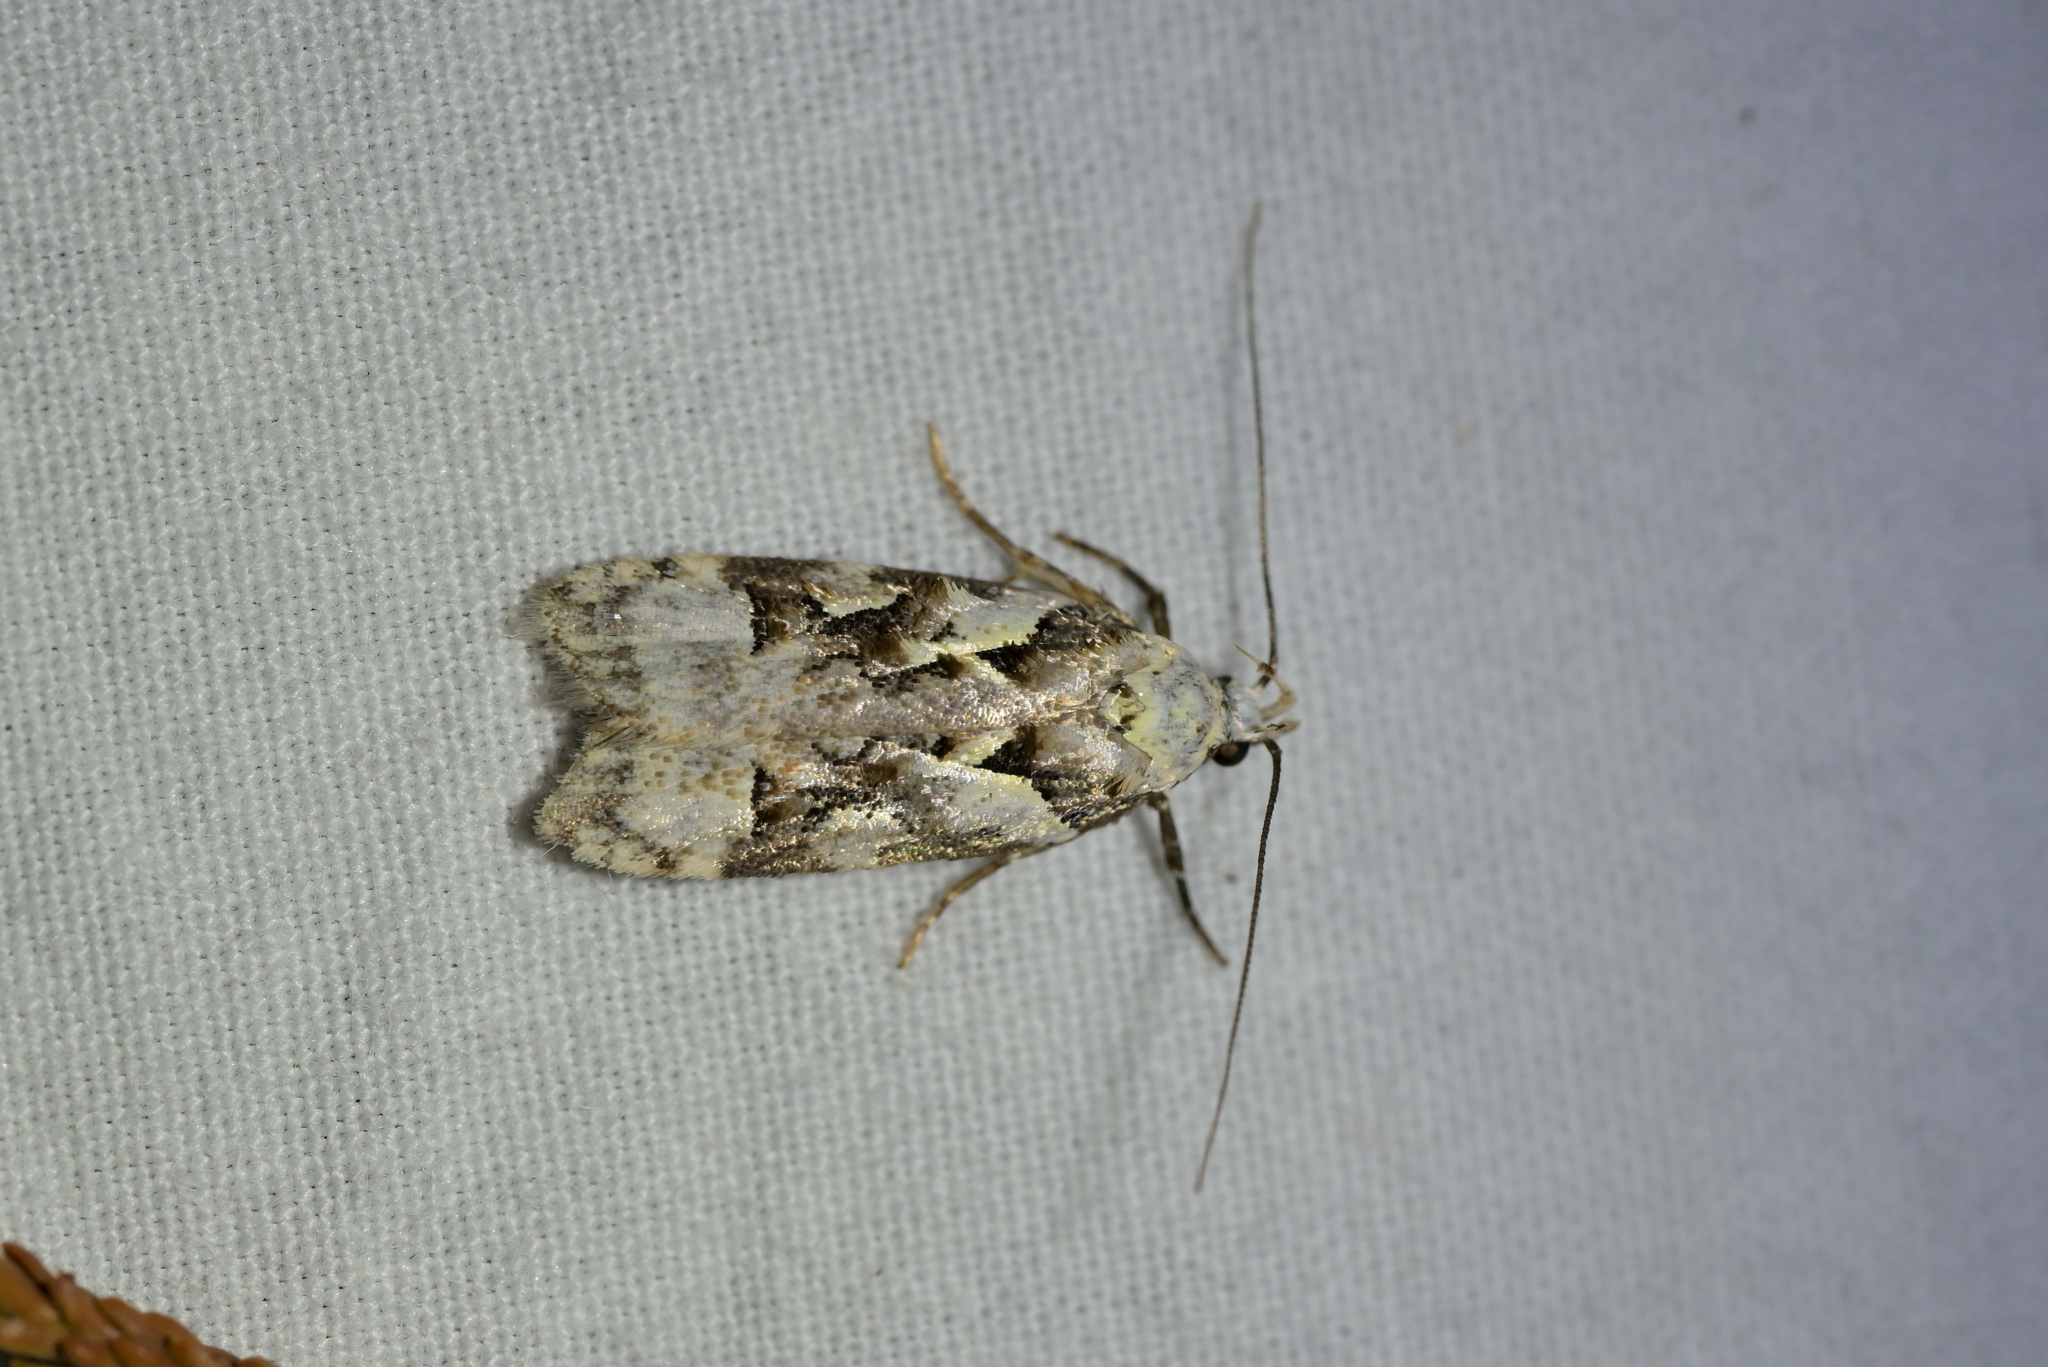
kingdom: Animalia
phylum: Arthropoda
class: Insecta
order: Lepidoptera
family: Oecophoridae
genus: Izatha
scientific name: Izatha epiphanes
